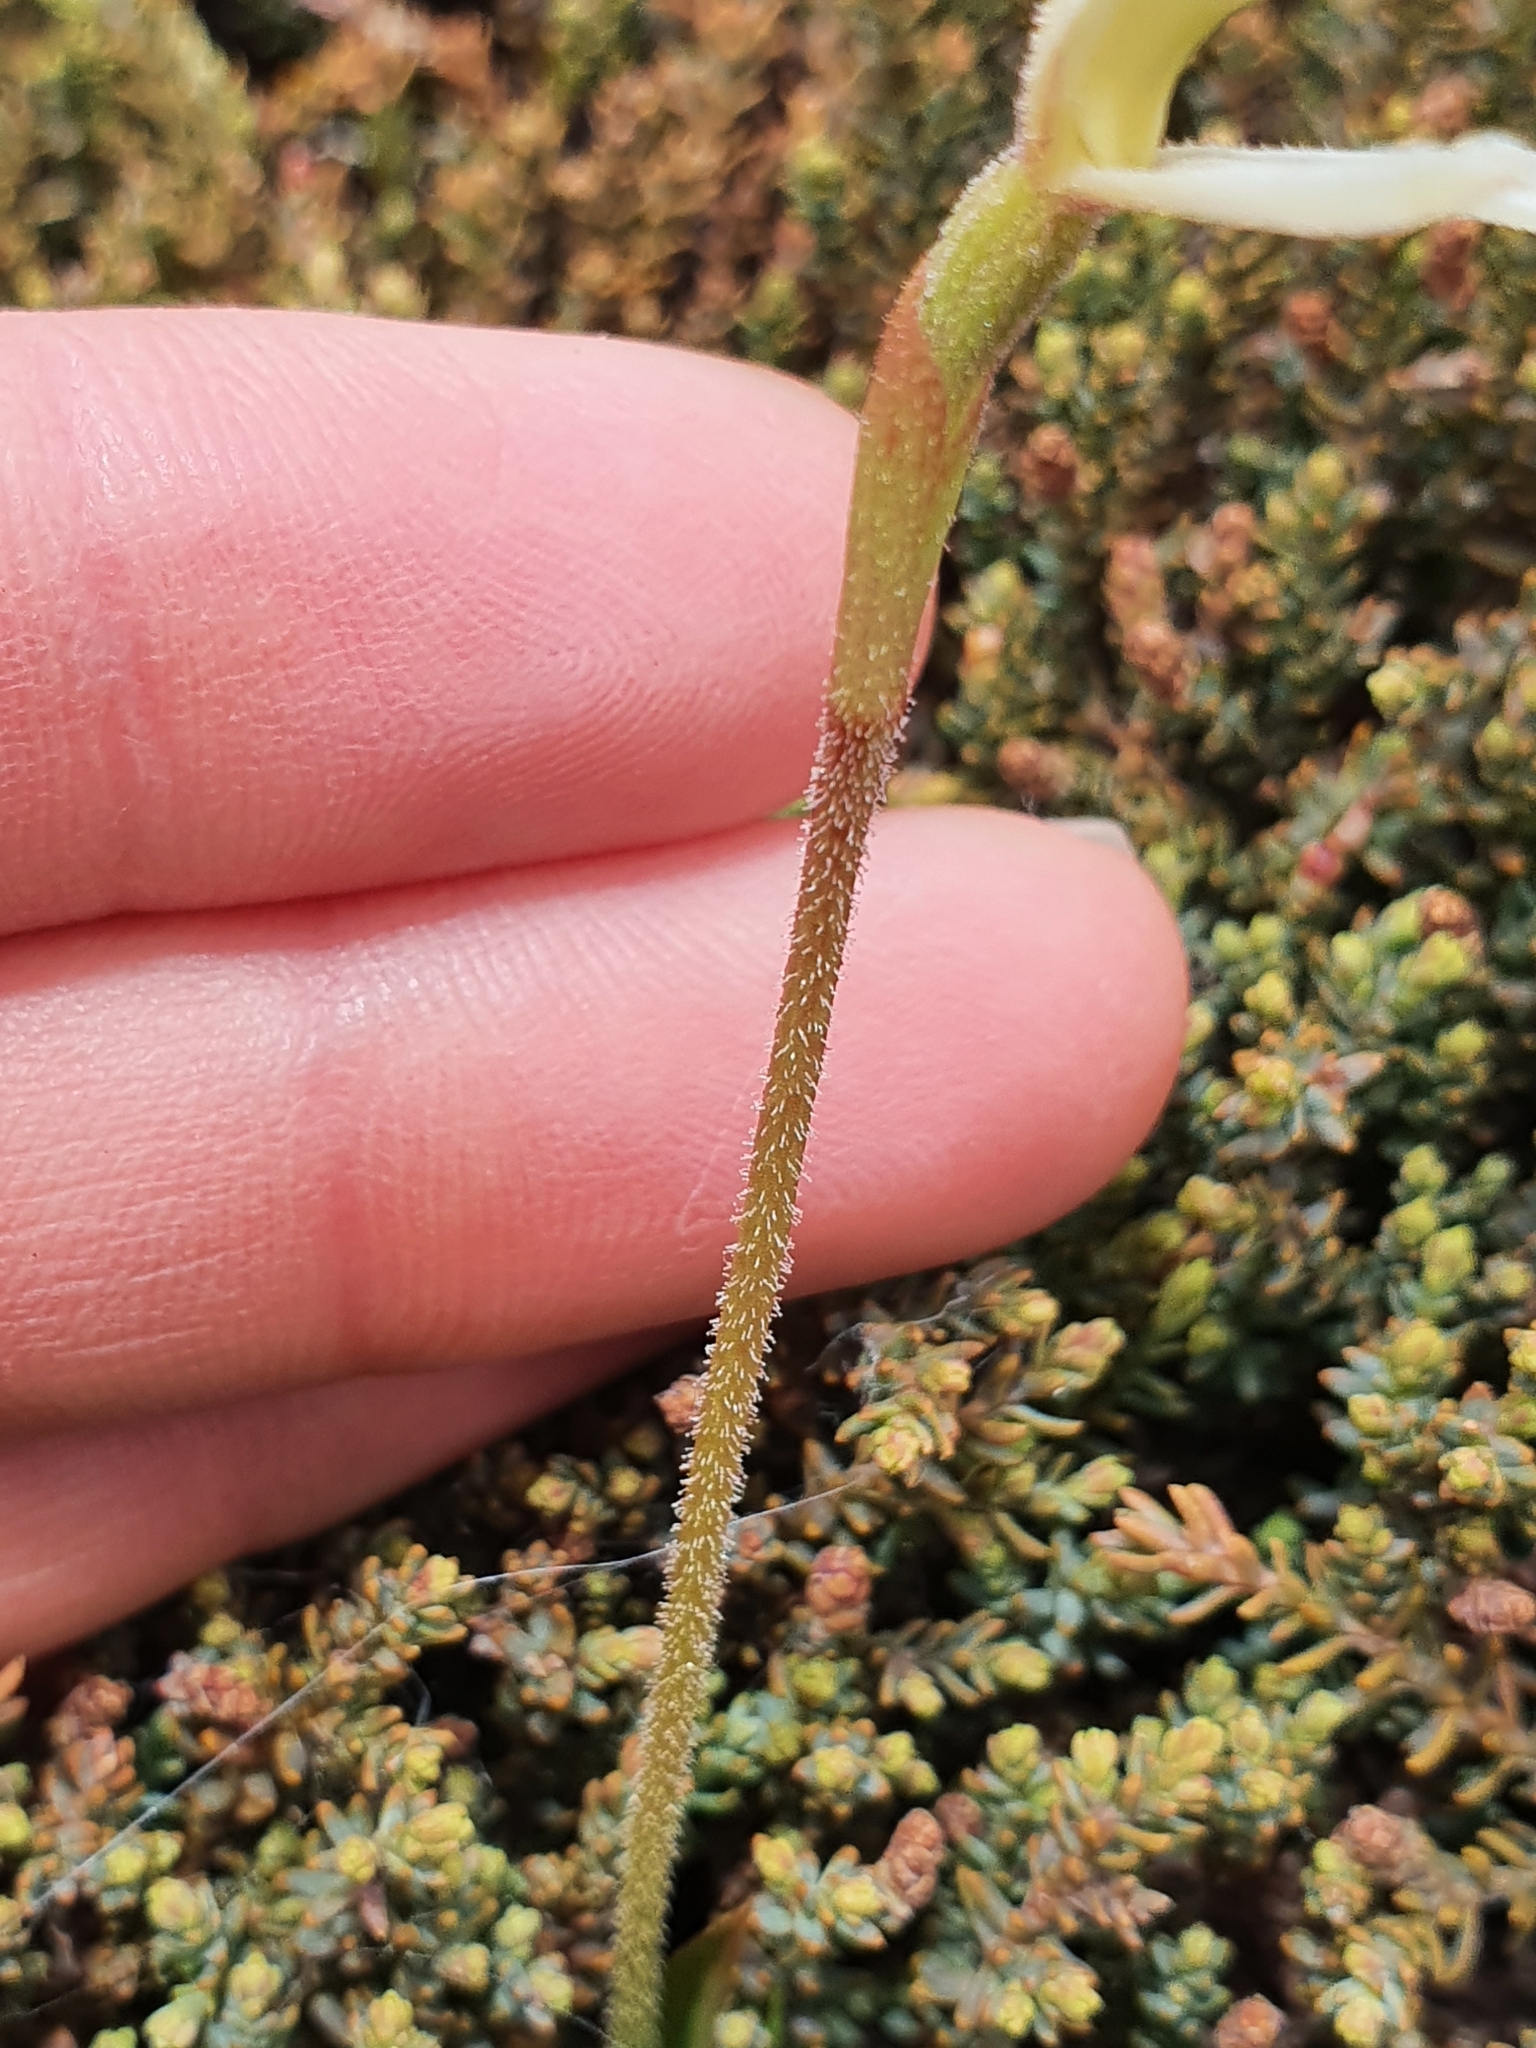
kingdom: Plantae
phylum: Tracheophyta
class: Liliopsida
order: Asparagales
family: Orchidaceae
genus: Aporostylis
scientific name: Aporostylis bifolia
